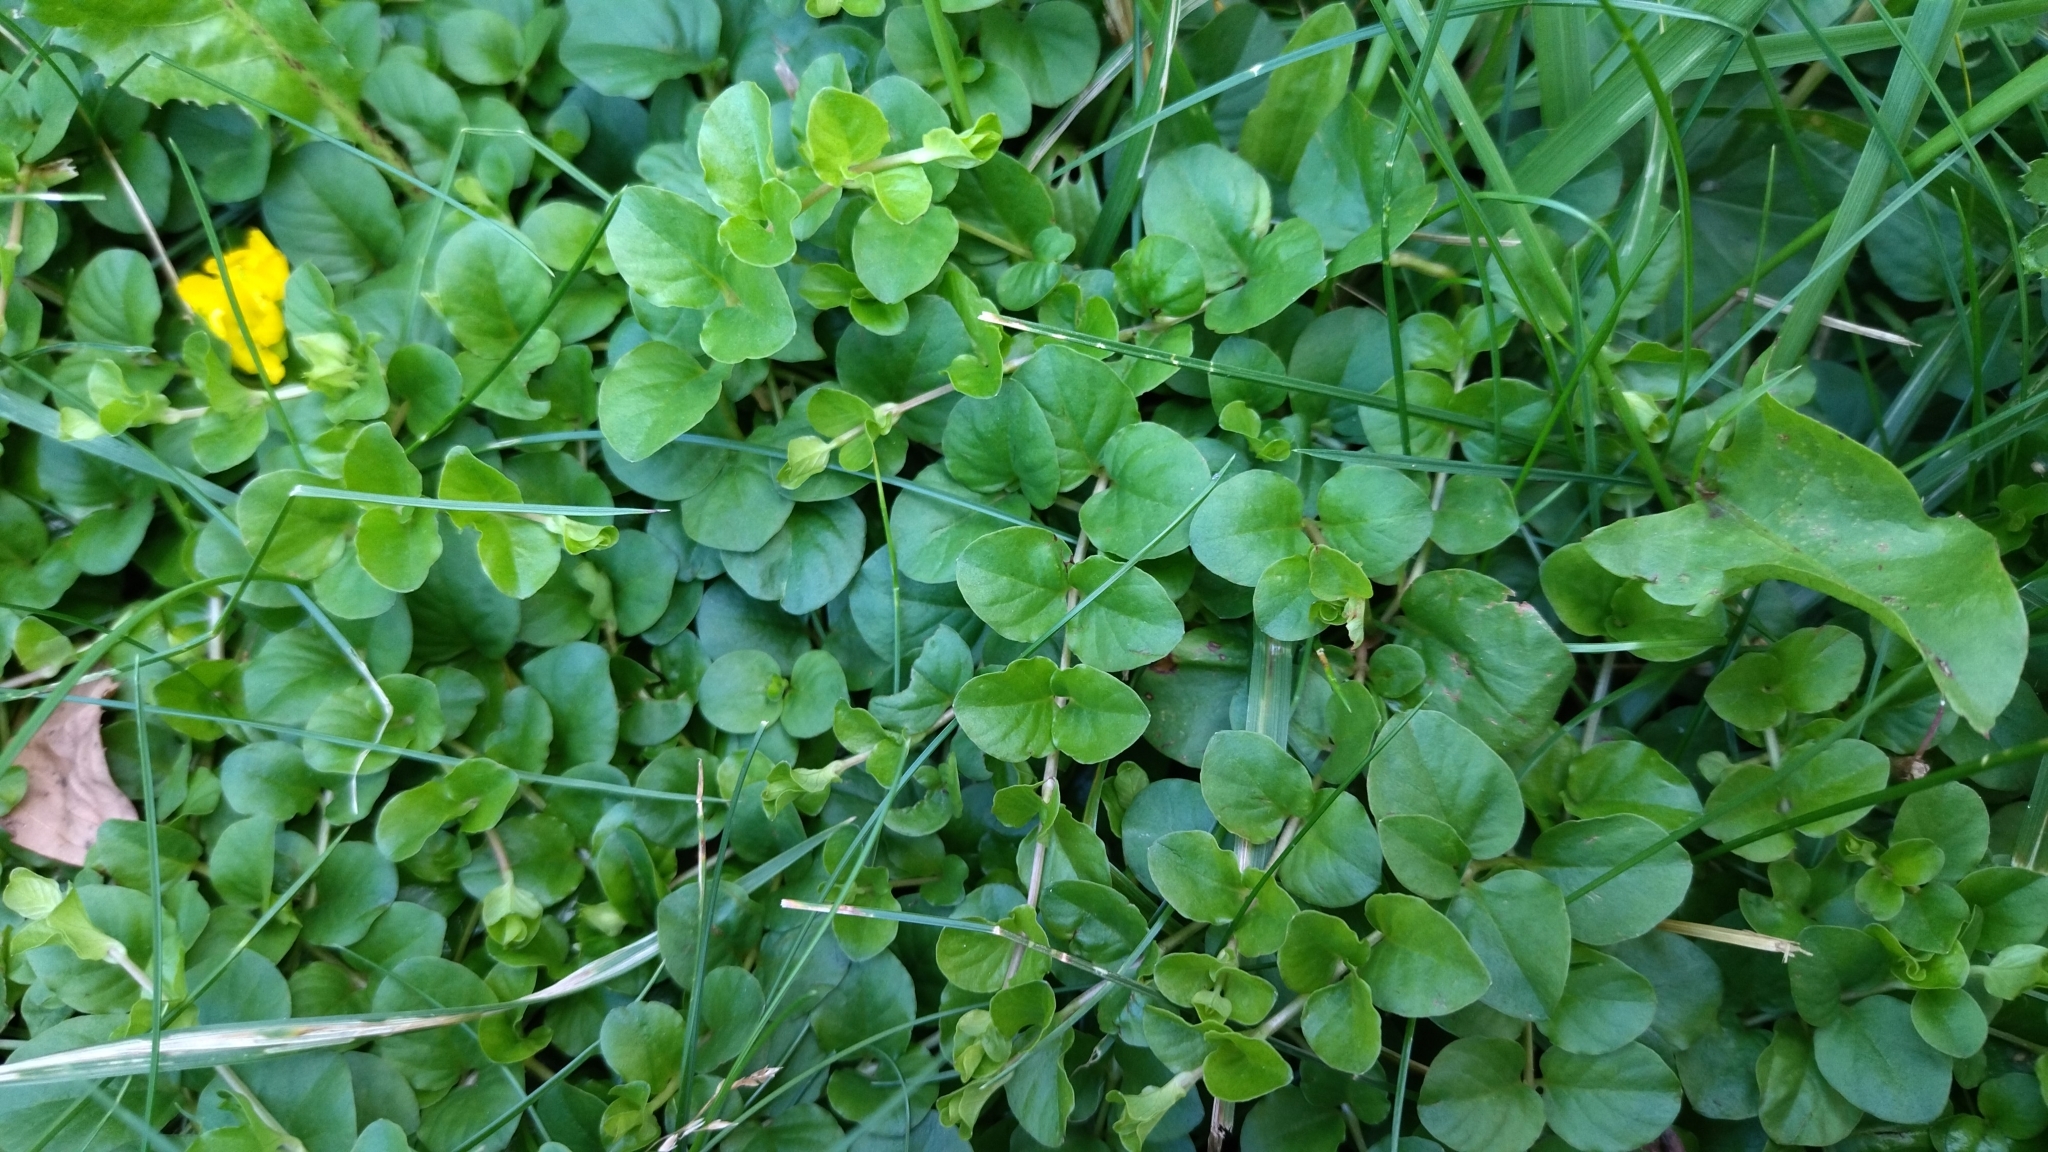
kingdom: Plantae
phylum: Tracheophyta
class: Magnoliopsida
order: Ericales
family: Primulaceae
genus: Lysimachia
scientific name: Lysimachia nummularia
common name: Moneywort
